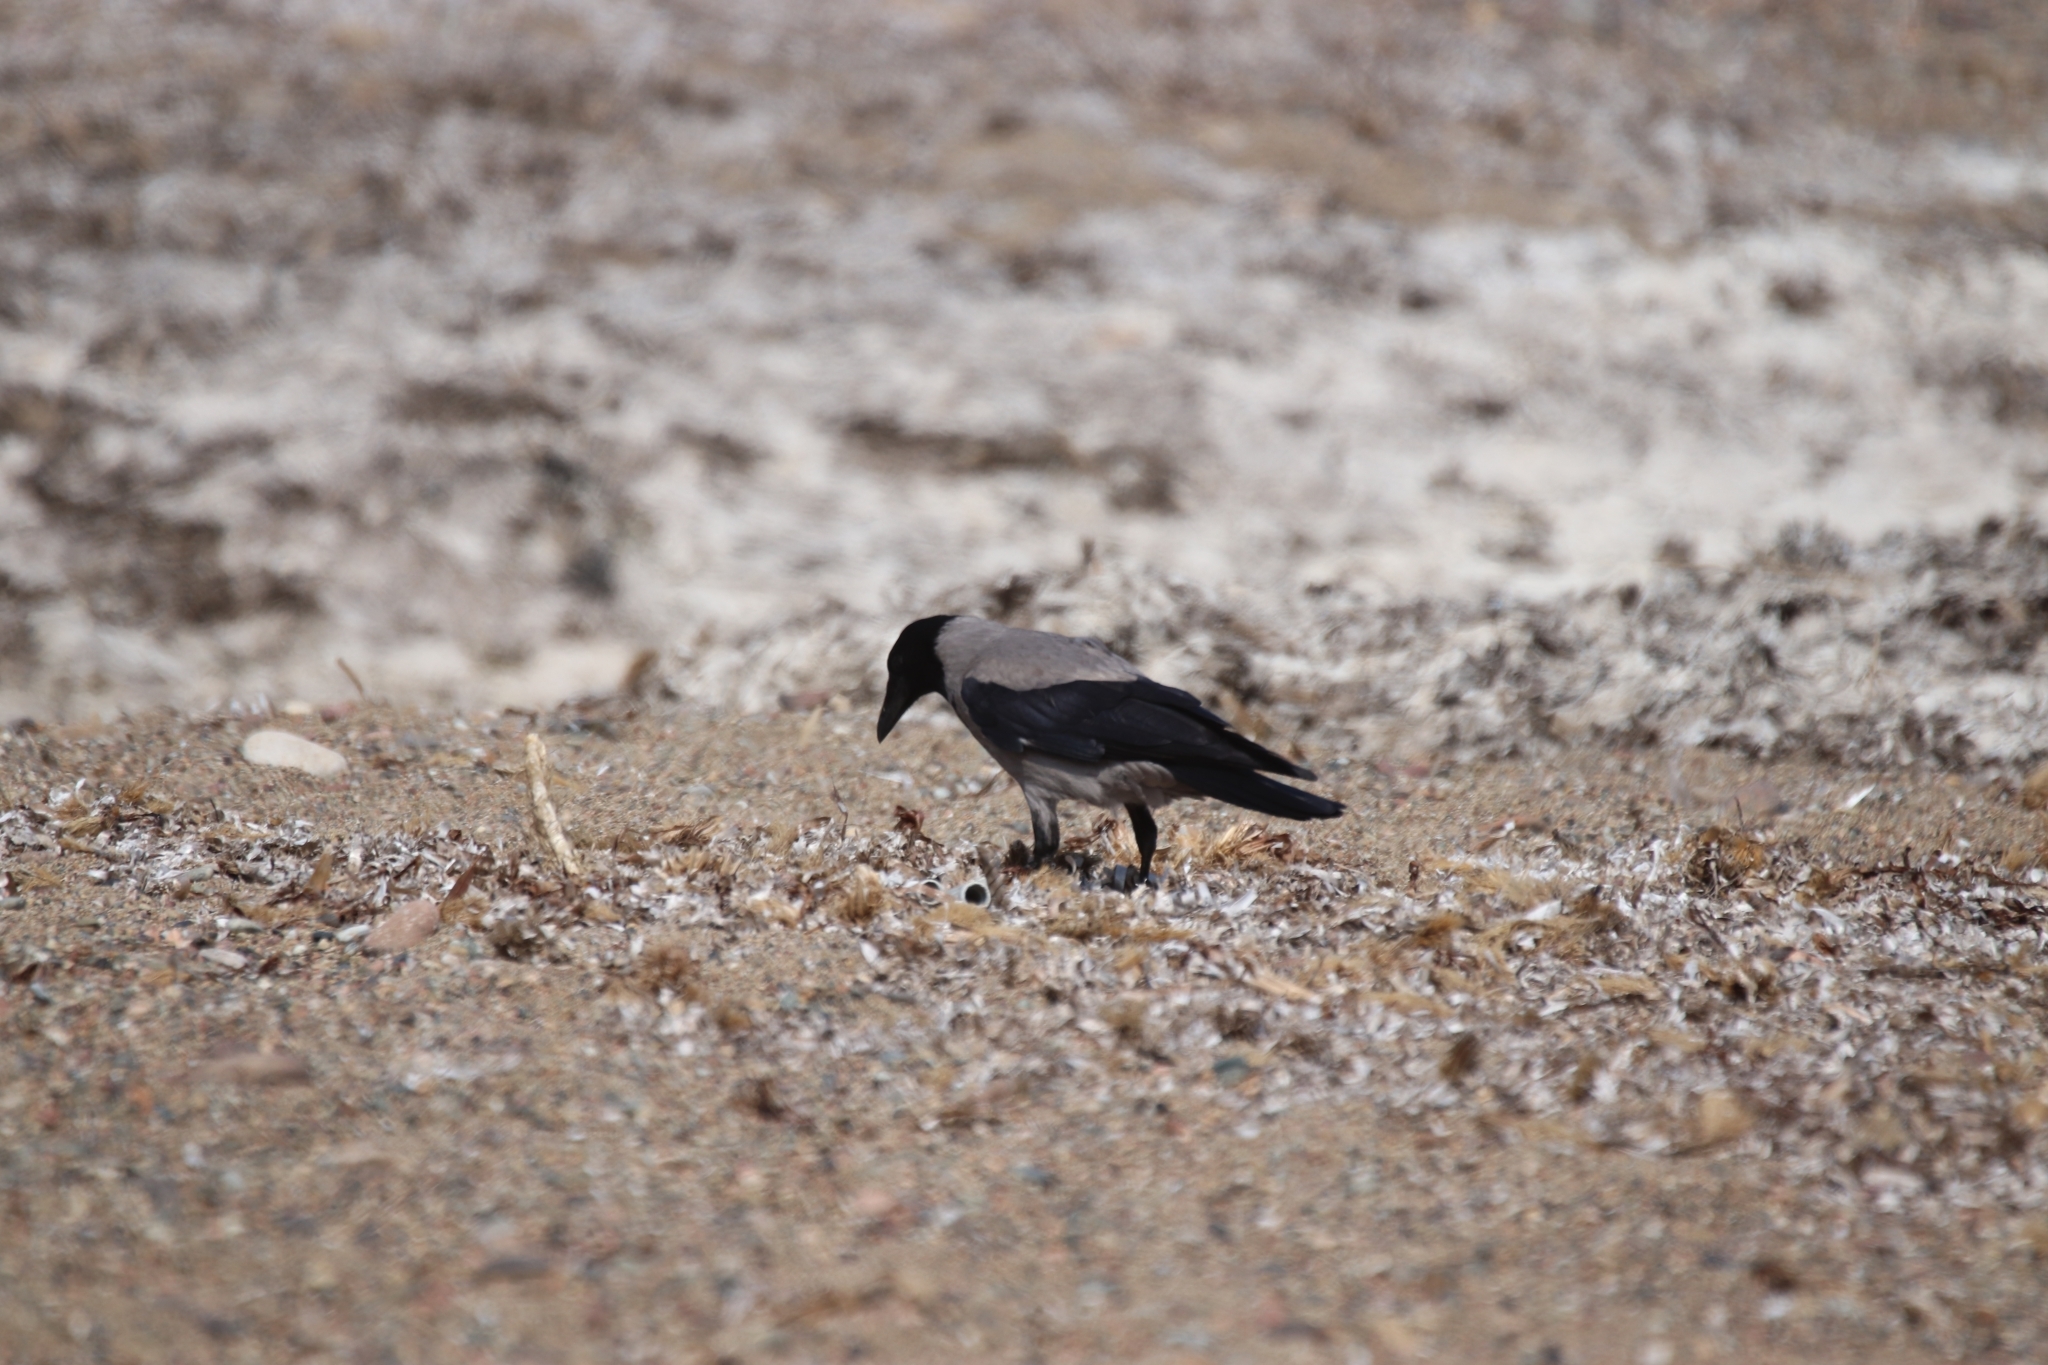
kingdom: Animalia
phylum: Chordata
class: Aves
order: Passeriformes
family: Corvidae
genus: Corvus
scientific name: Corvus cornix
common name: Hooded crow
